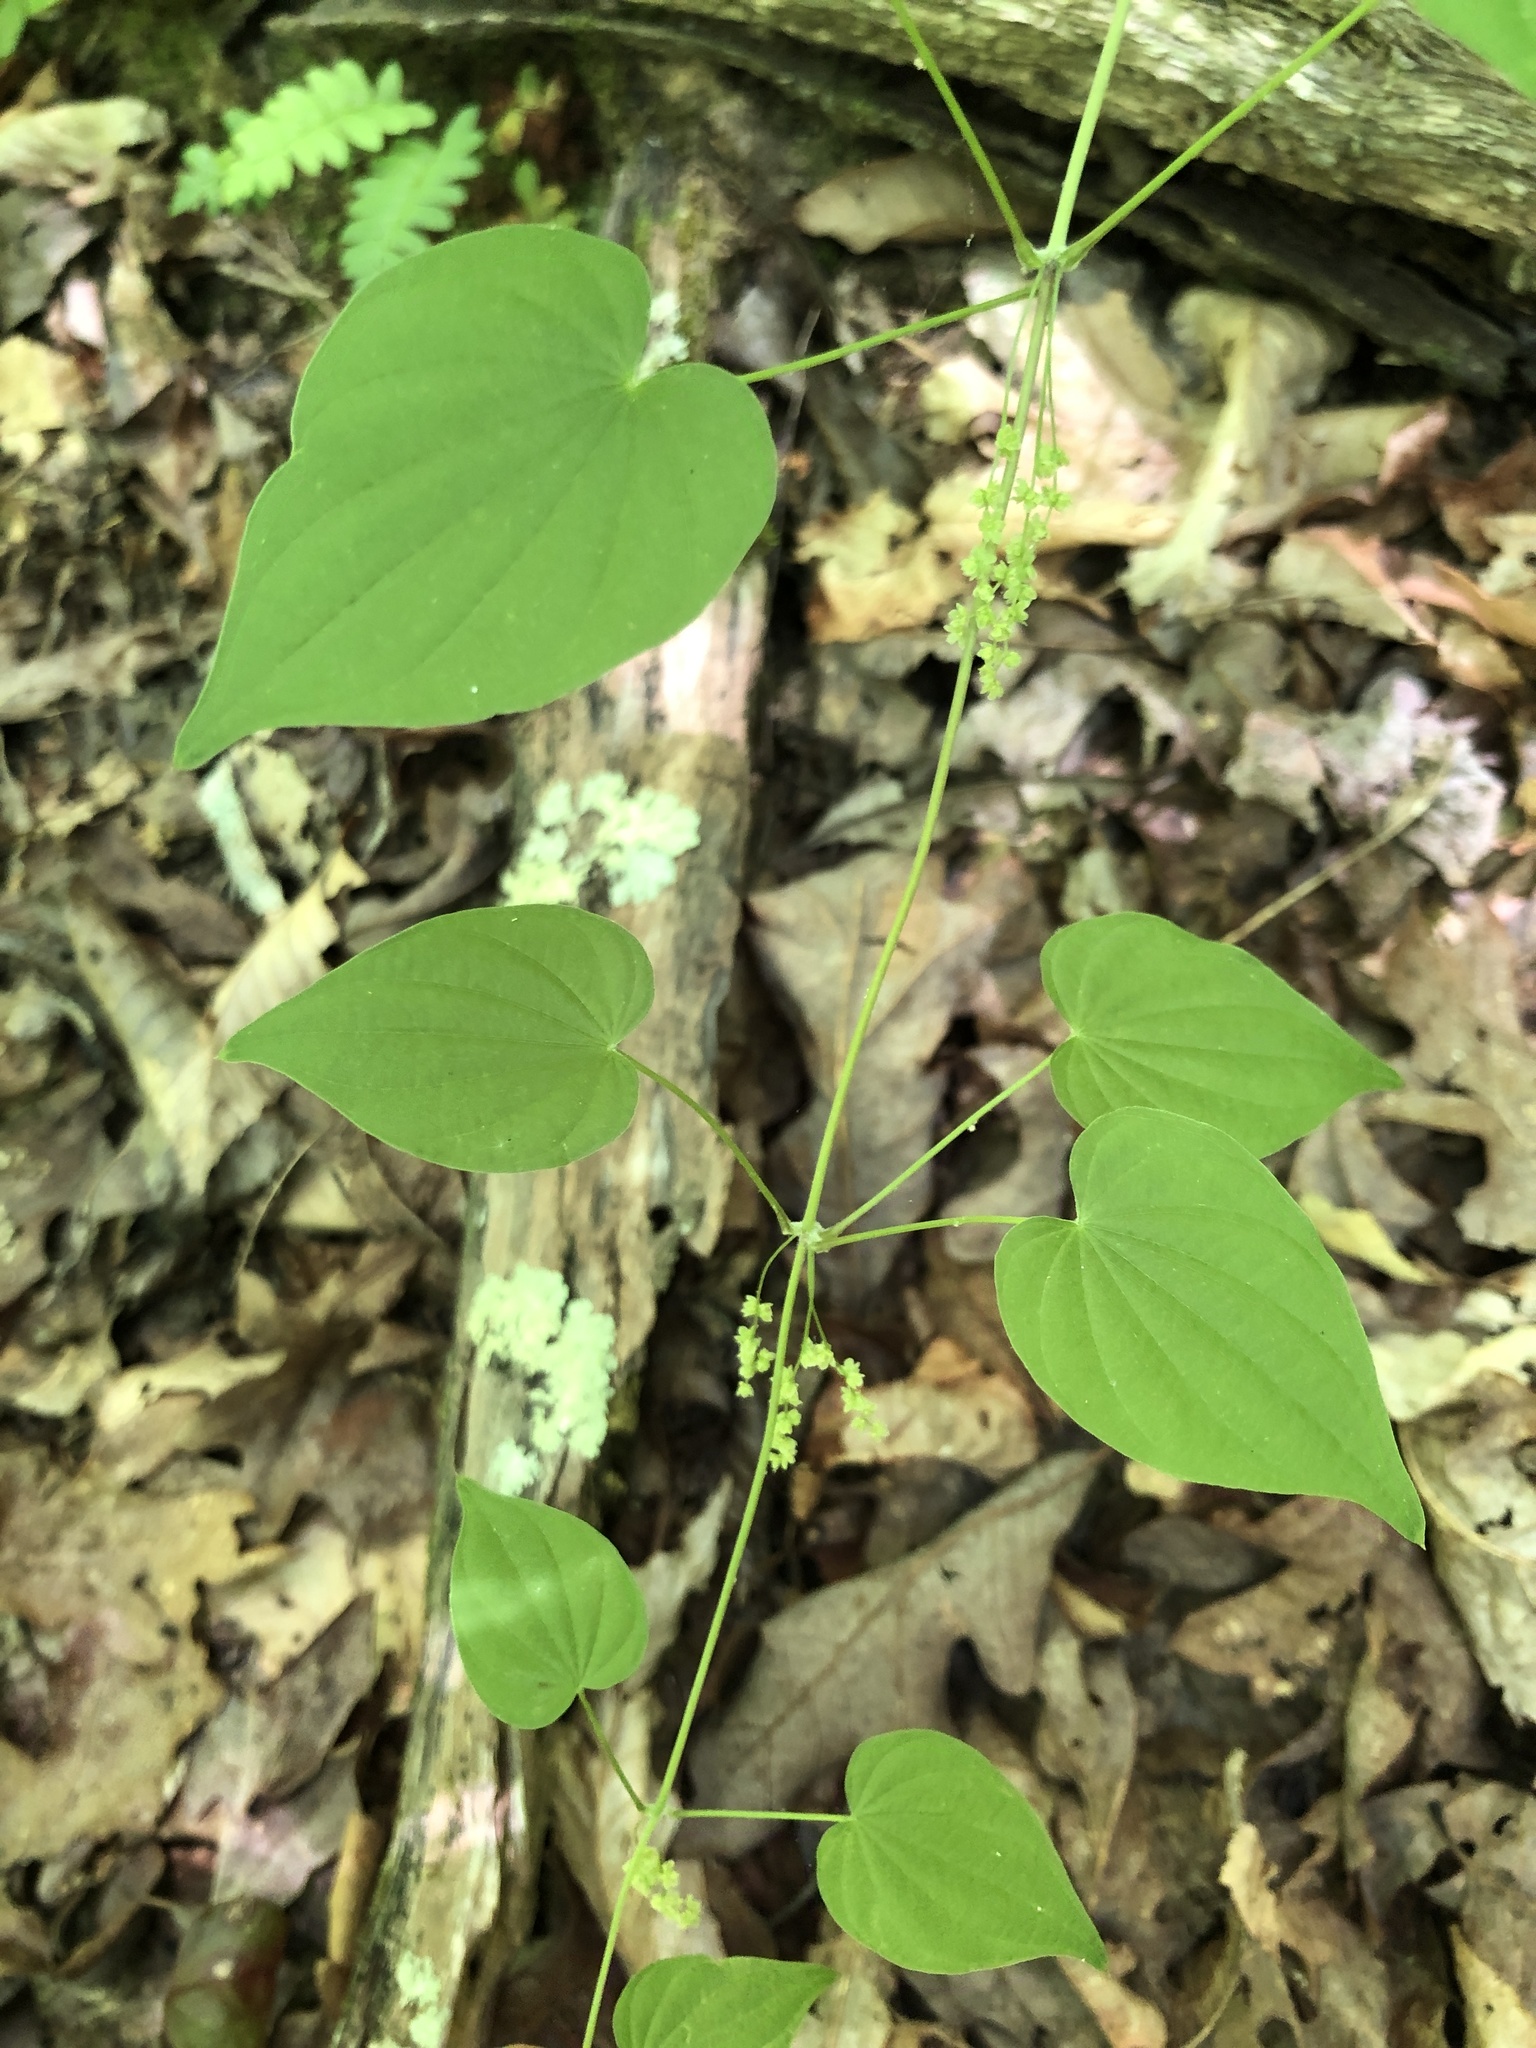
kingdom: Plantae
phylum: Tracheophyta
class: Liliopsida
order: Dioscoreales
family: Dioscoreaceae
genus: Dioscorea
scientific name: Dioscorea villosa
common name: Wild yam
